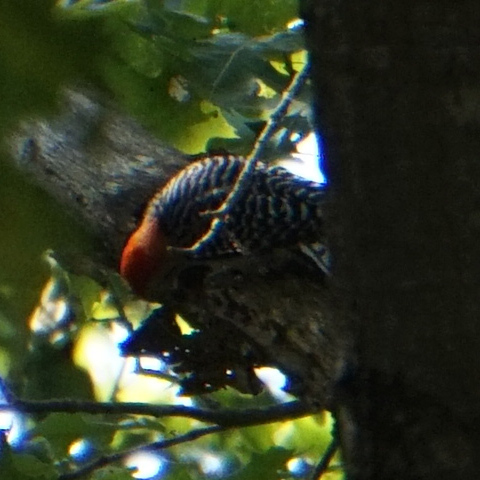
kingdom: Animalia
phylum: Chordata
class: Aves
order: Piciformes
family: Picidae
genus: Melanerpes
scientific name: Melanerpes carolinus
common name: Red-bellied woodpecker
